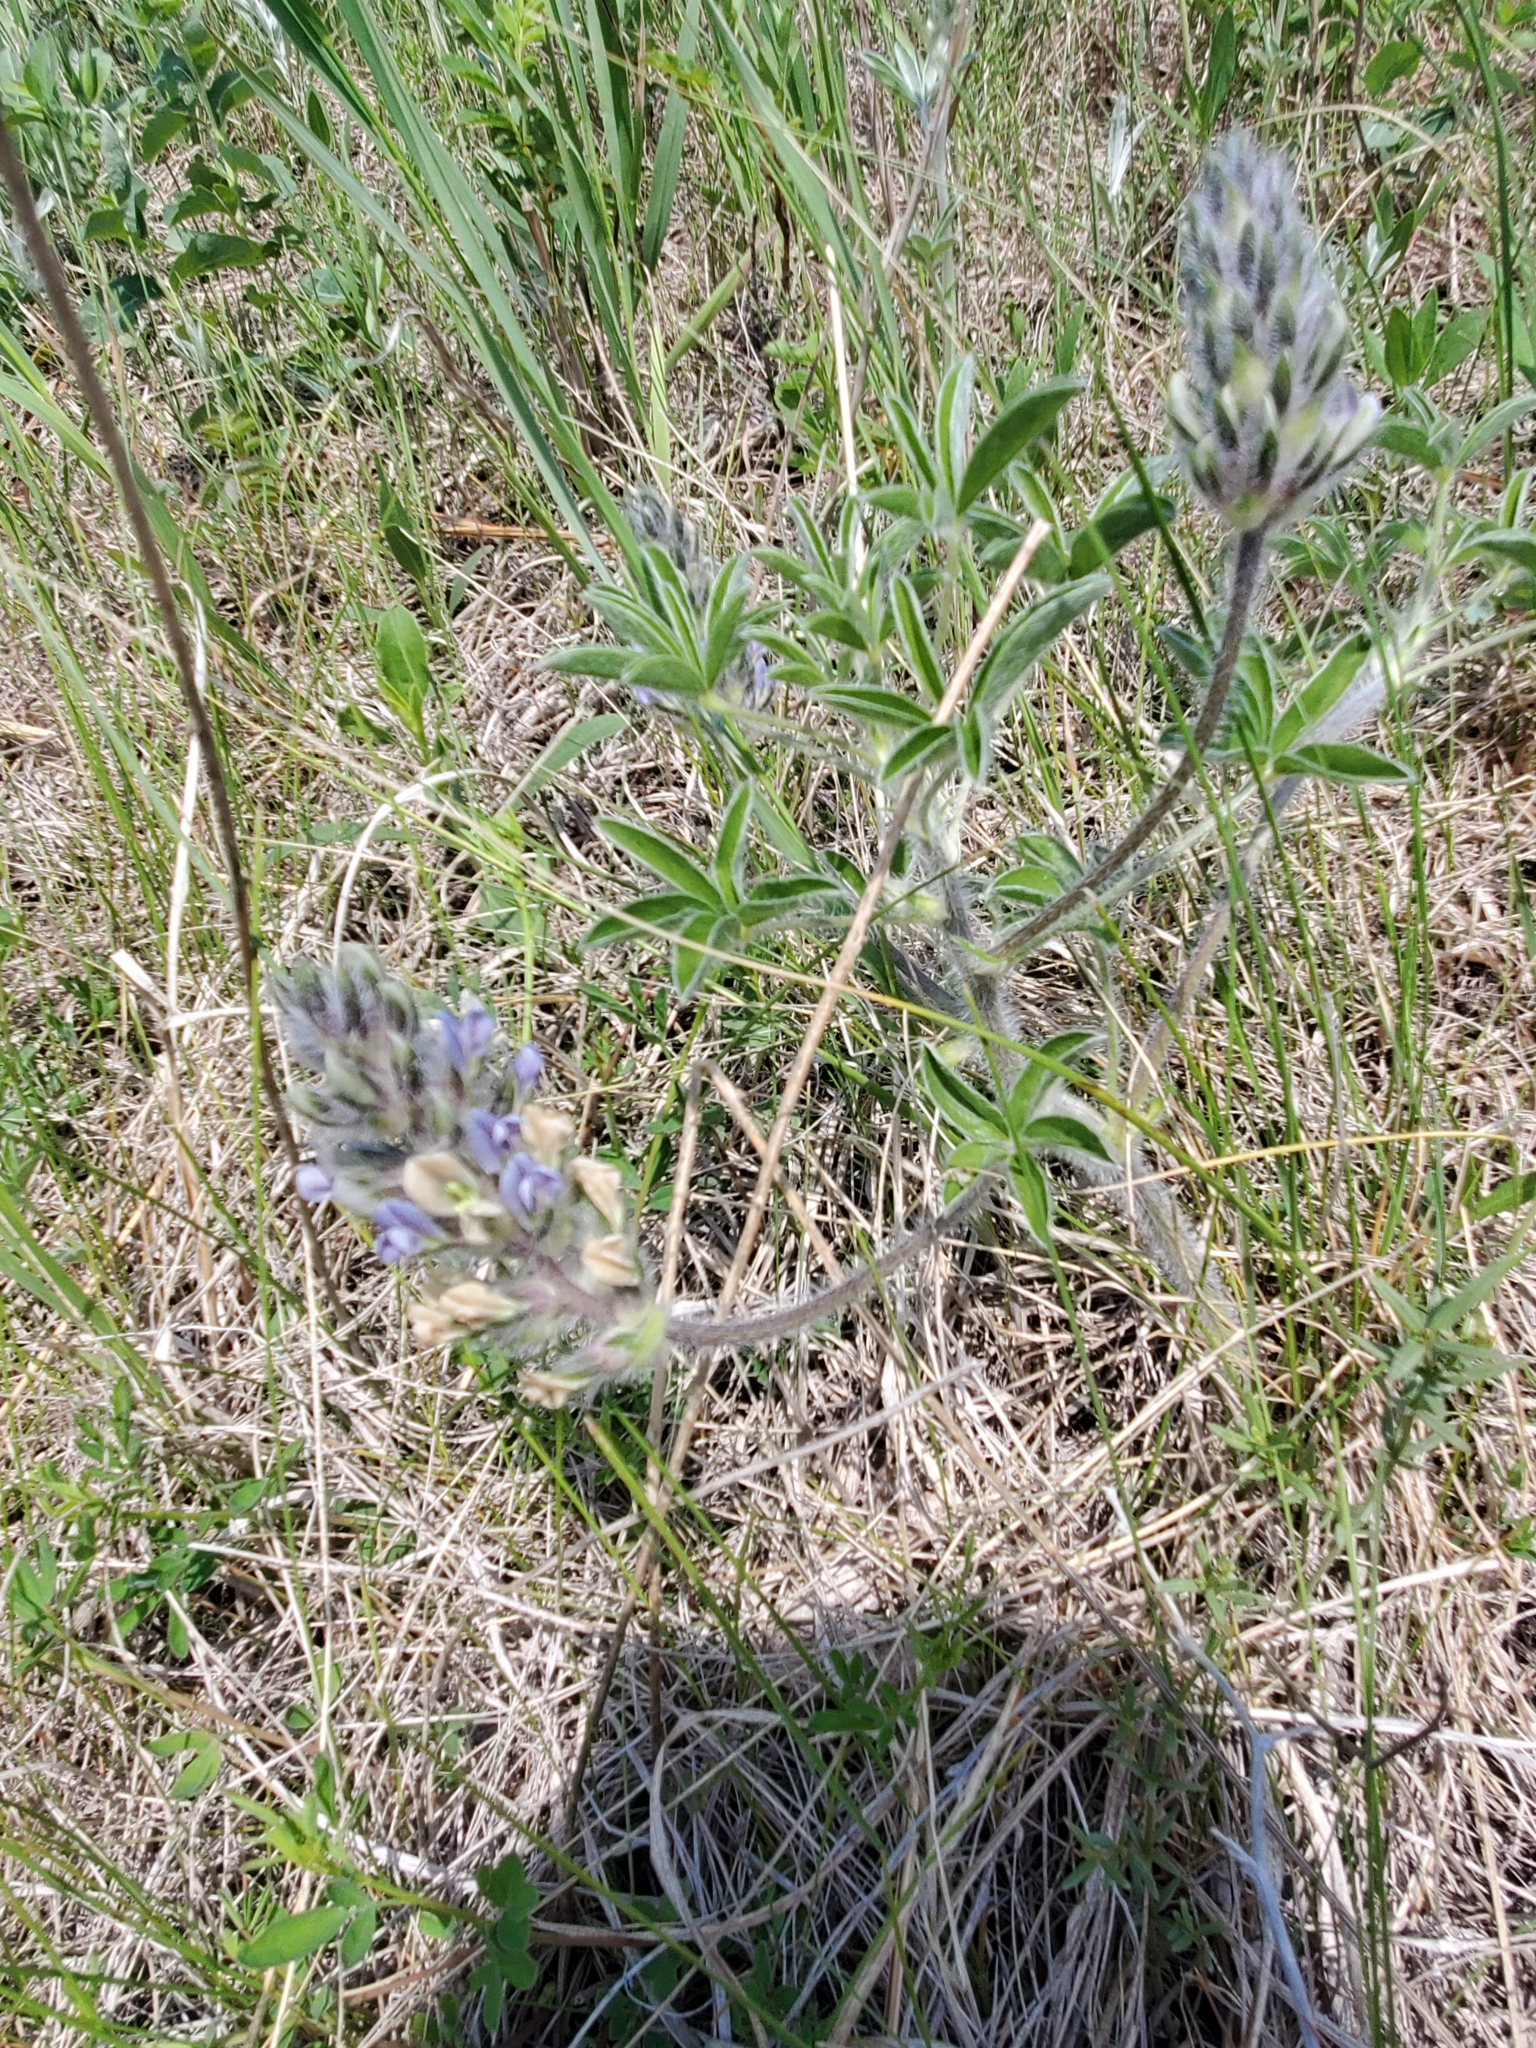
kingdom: Plantae
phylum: Tracheophyta
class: Magnoliopsida
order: Fabales
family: Fabaceae
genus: Pediomelum
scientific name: Pediomelum esculentum
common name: Indian-turnip
